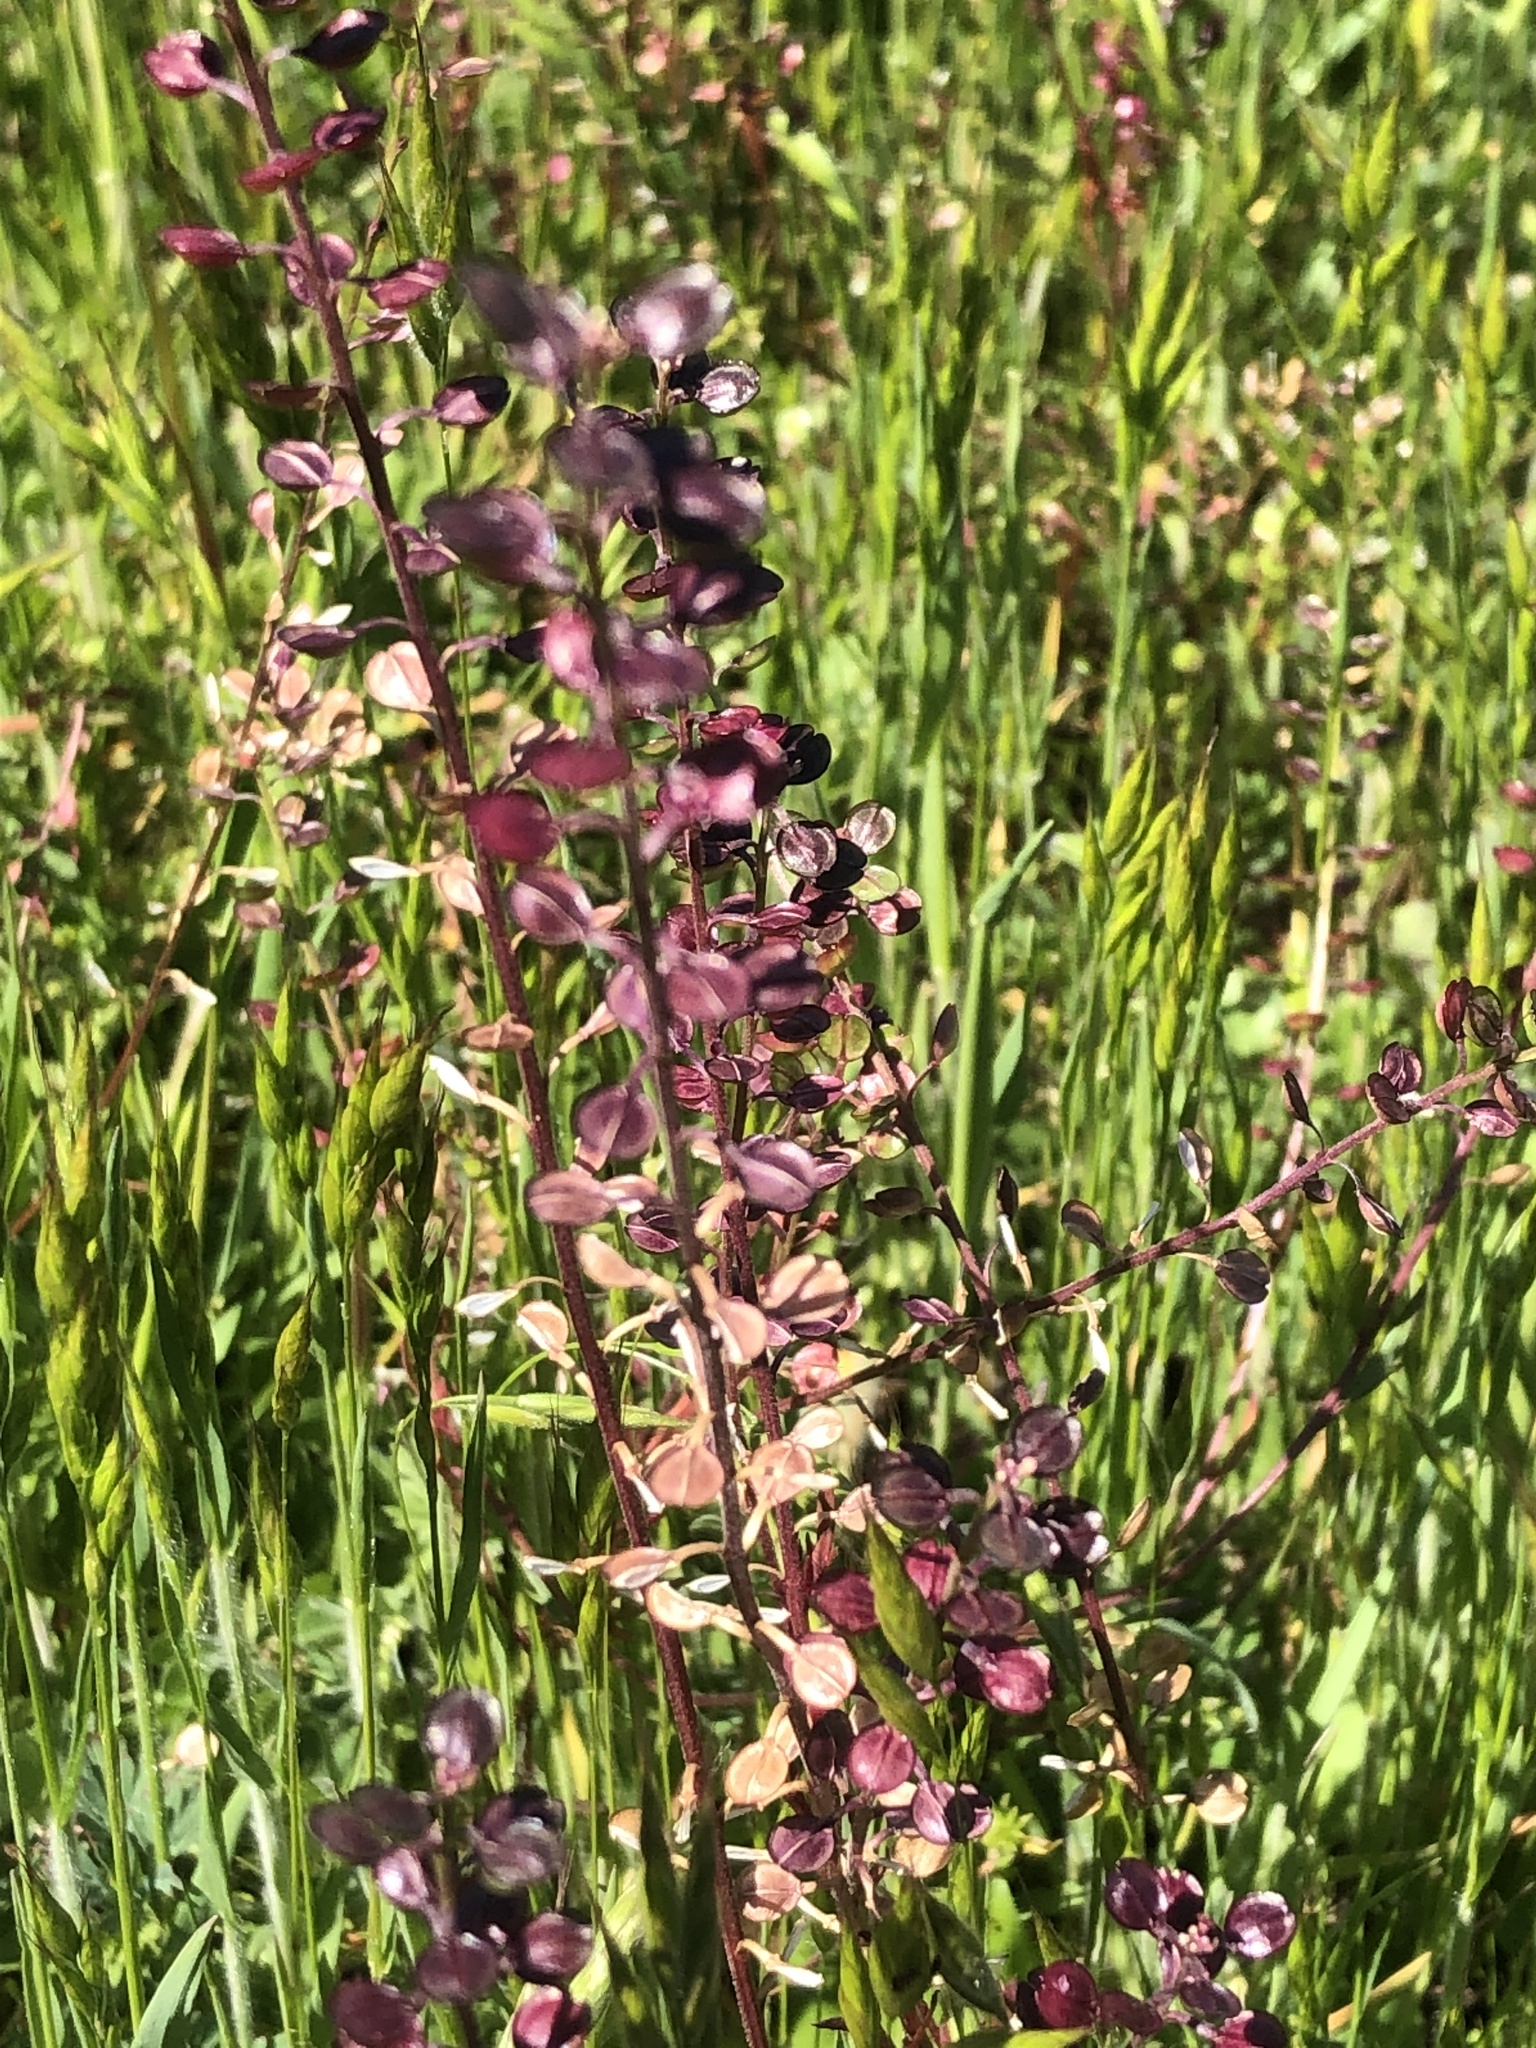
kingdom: Plantae
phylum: Tracheophyta
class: Magnoliopsida
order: Brassicales
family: Brassicaceae
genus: Lepidium
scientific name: Lepidium nitidum
